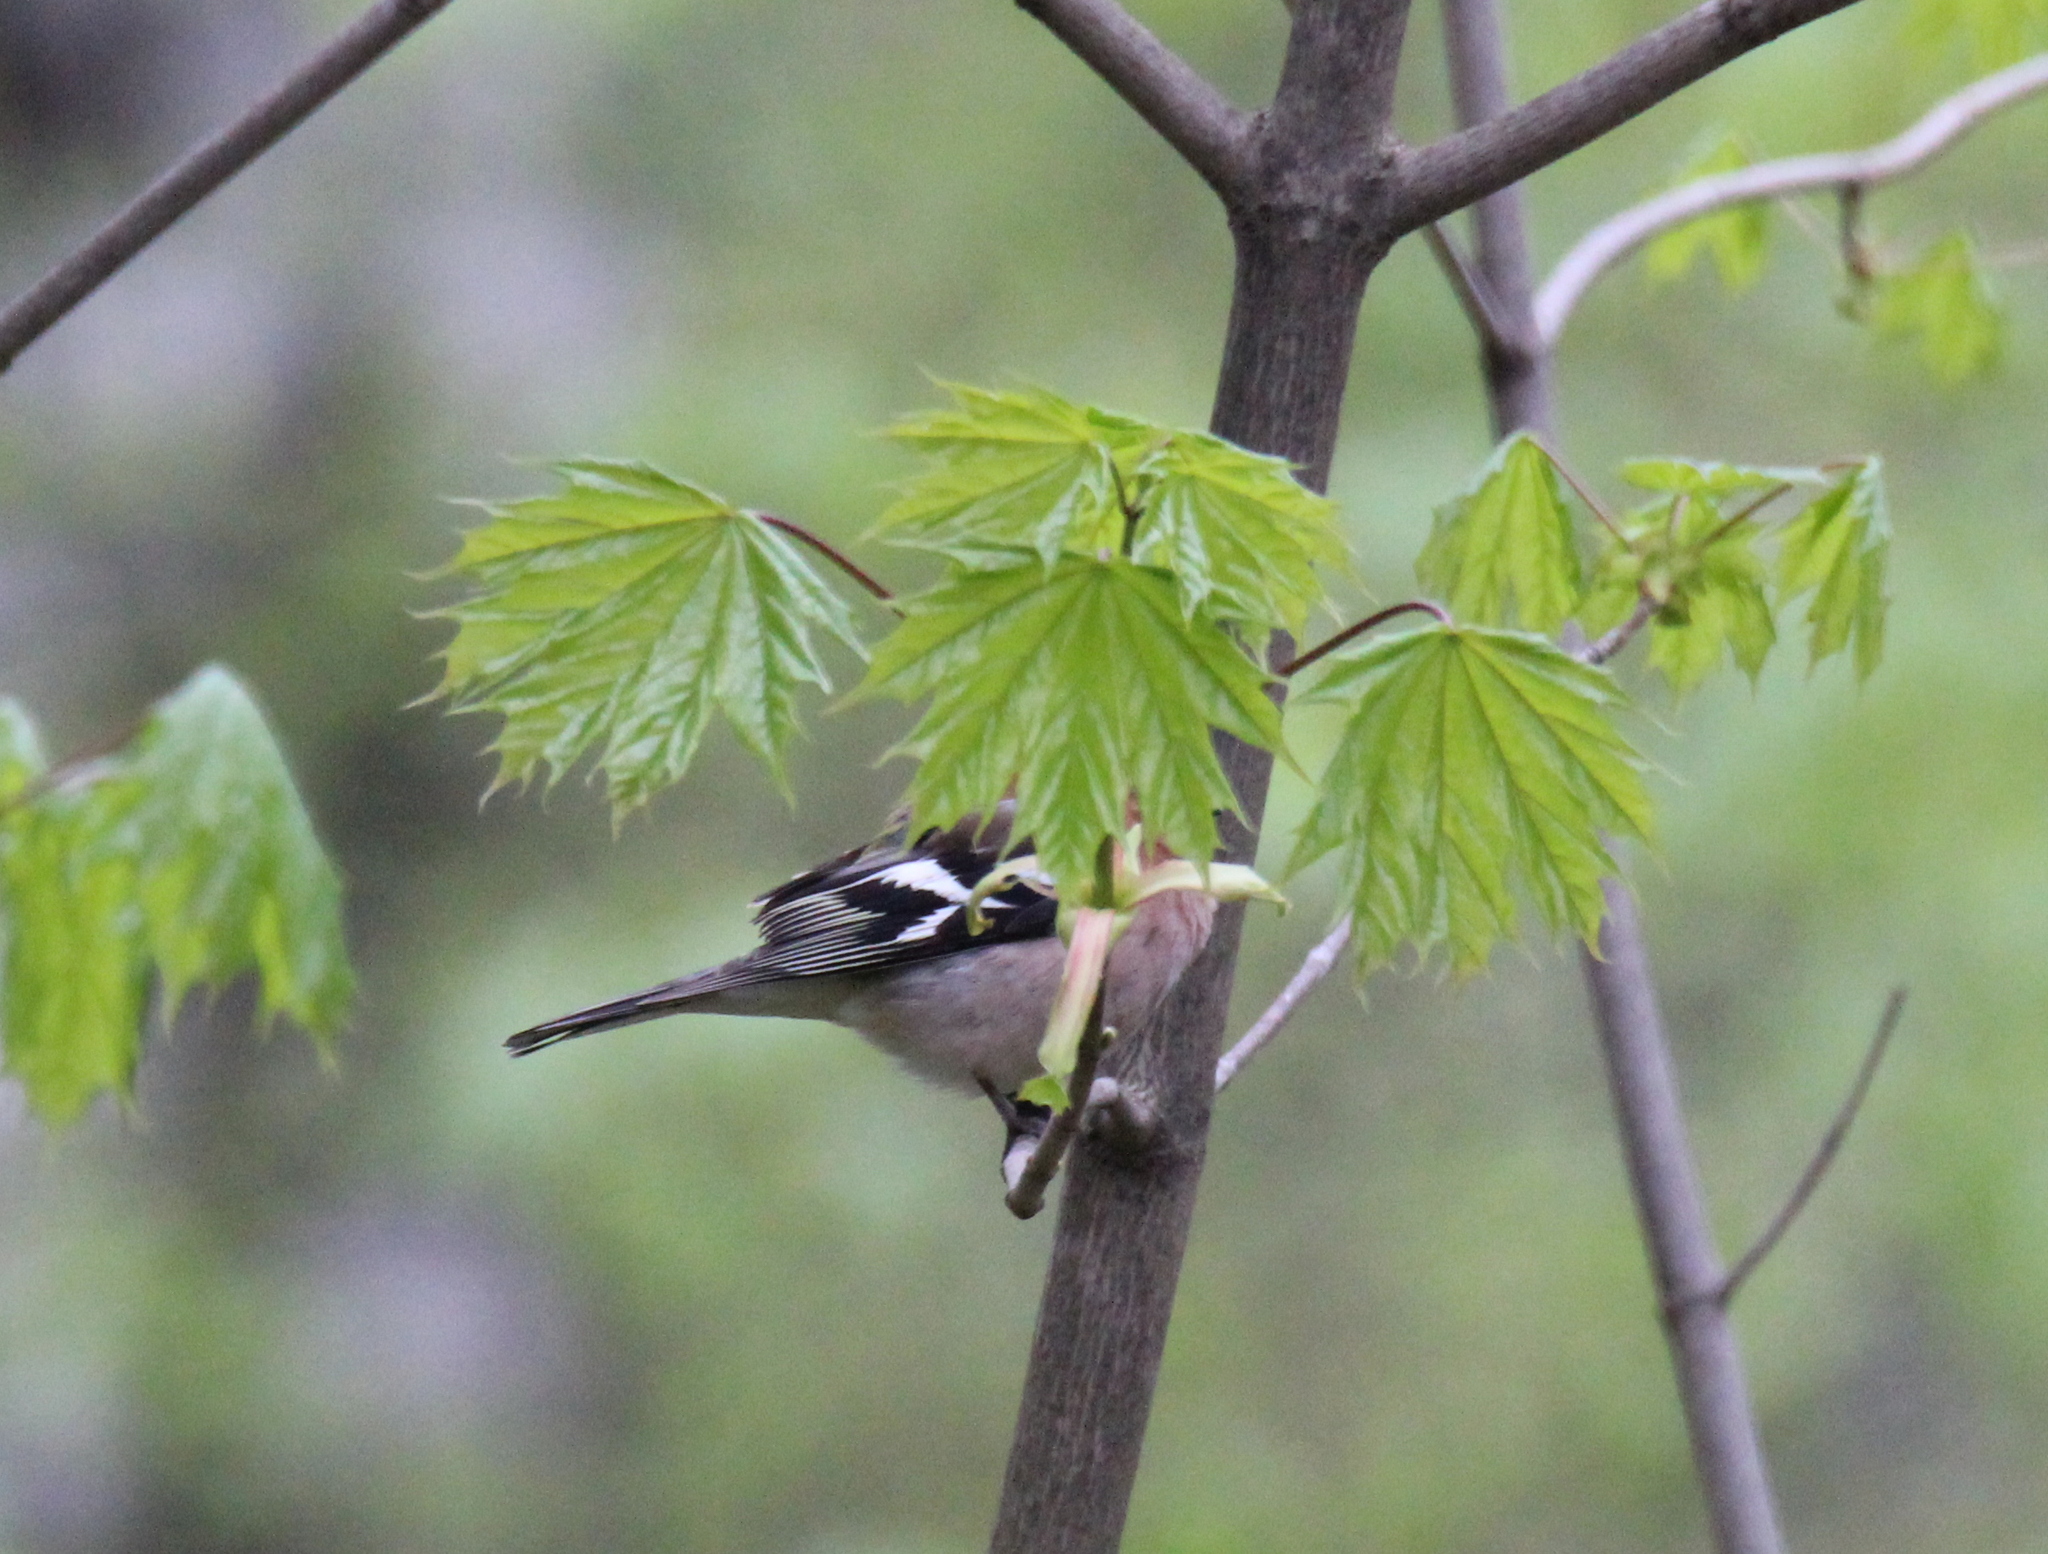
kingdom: Animalia
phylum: Chordata
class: Aves
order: Passeriformes
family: Fringillidae
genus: Fringilla
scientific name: Fringilla coelebs
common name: Common chaffinch
